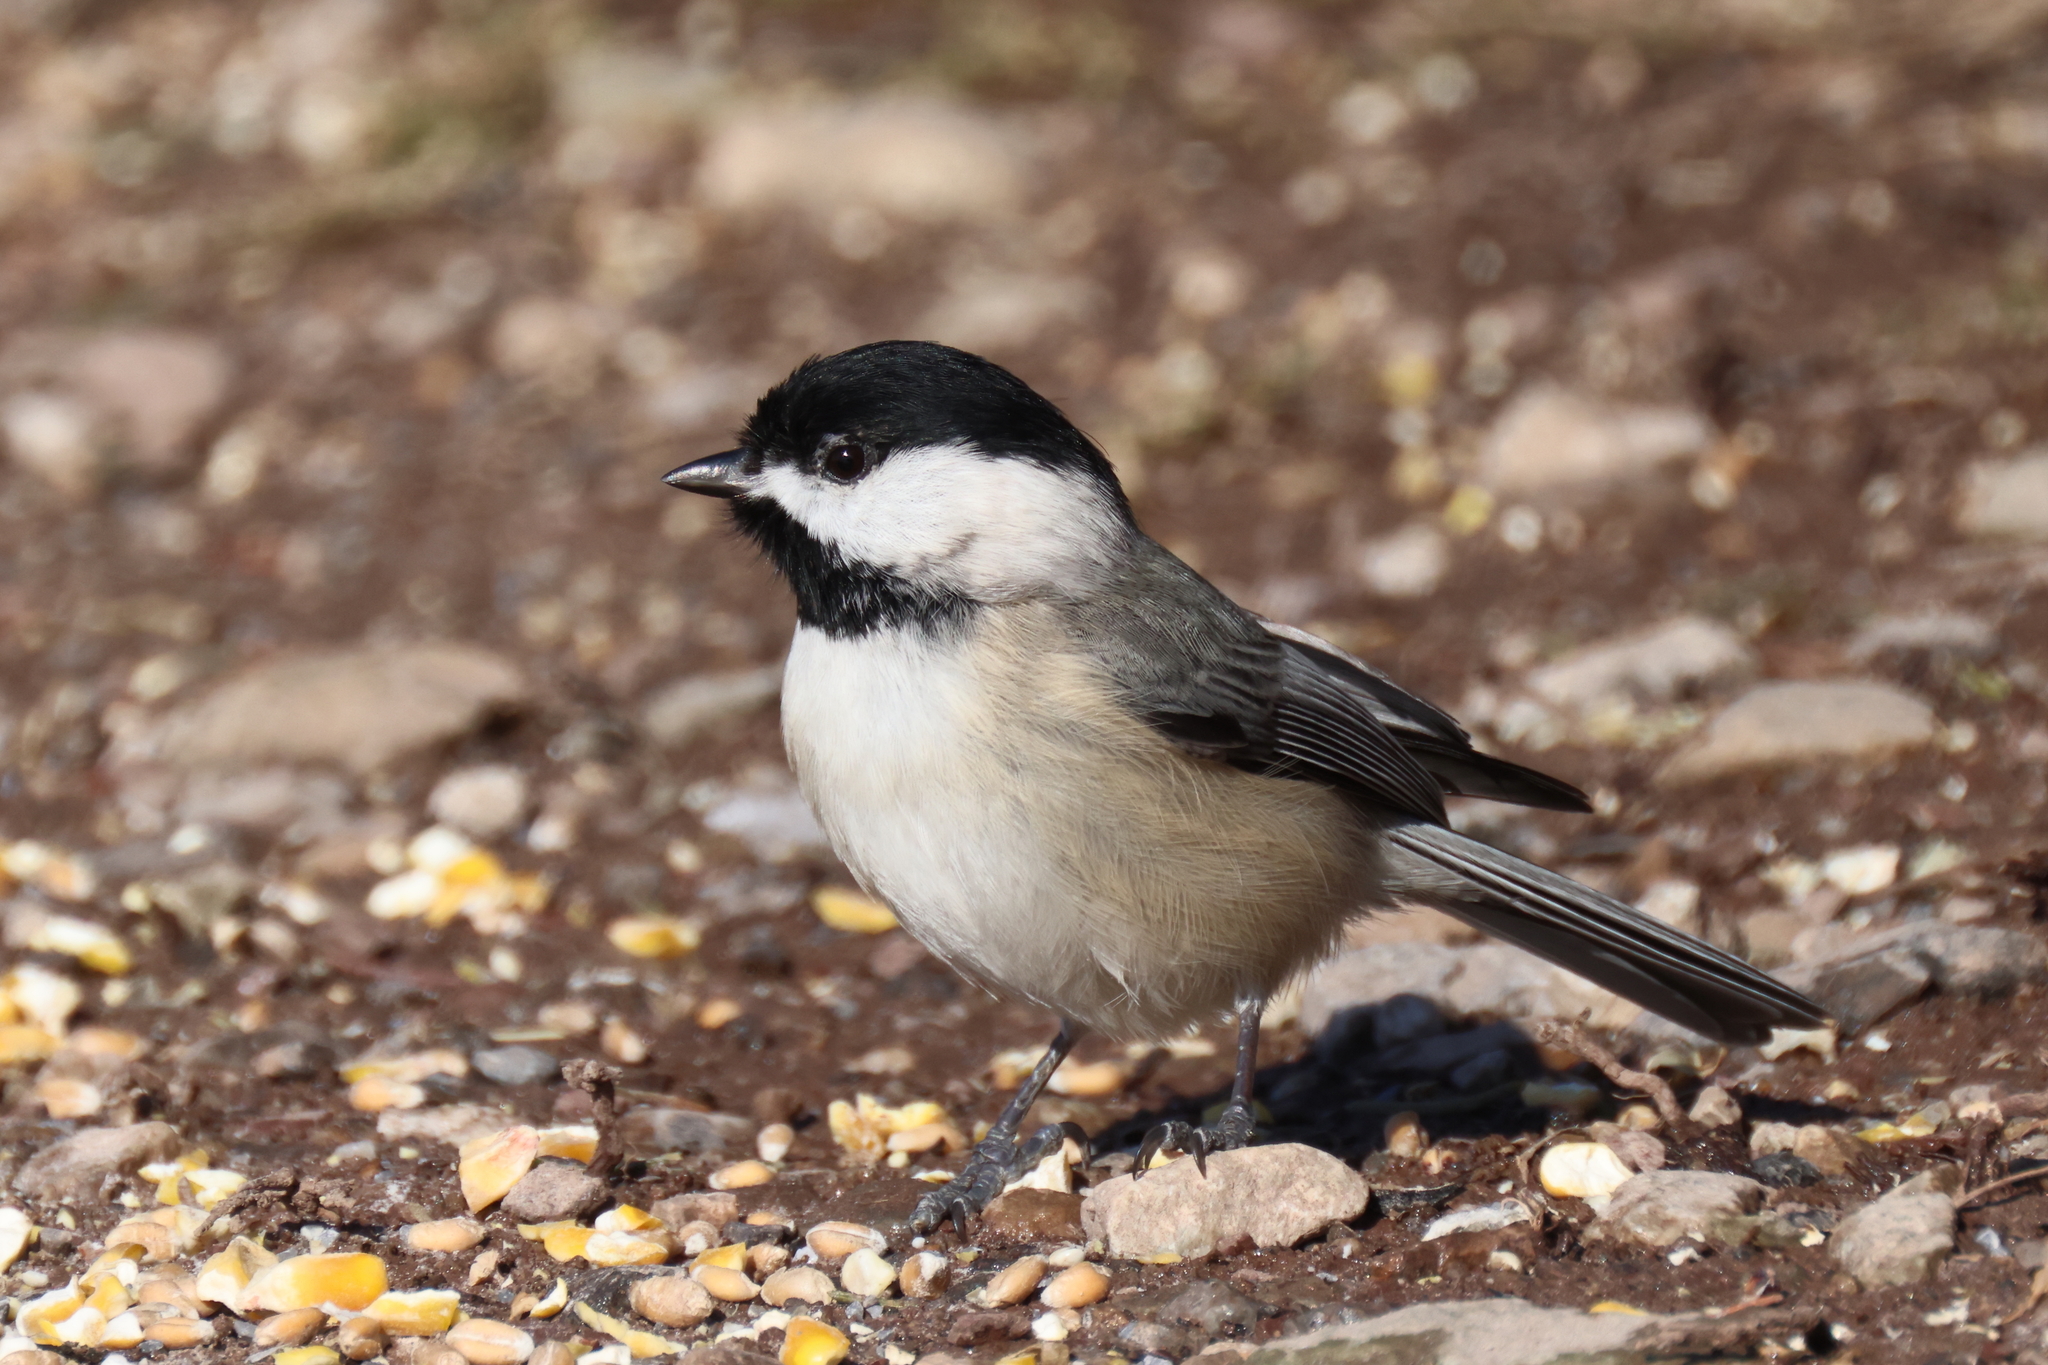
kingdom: Animalia
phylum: Chordata
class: Aves
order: Passeriformes
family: Paridae
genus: Poecile
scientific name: Poecile carolinensis
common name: Carolina chickadee
